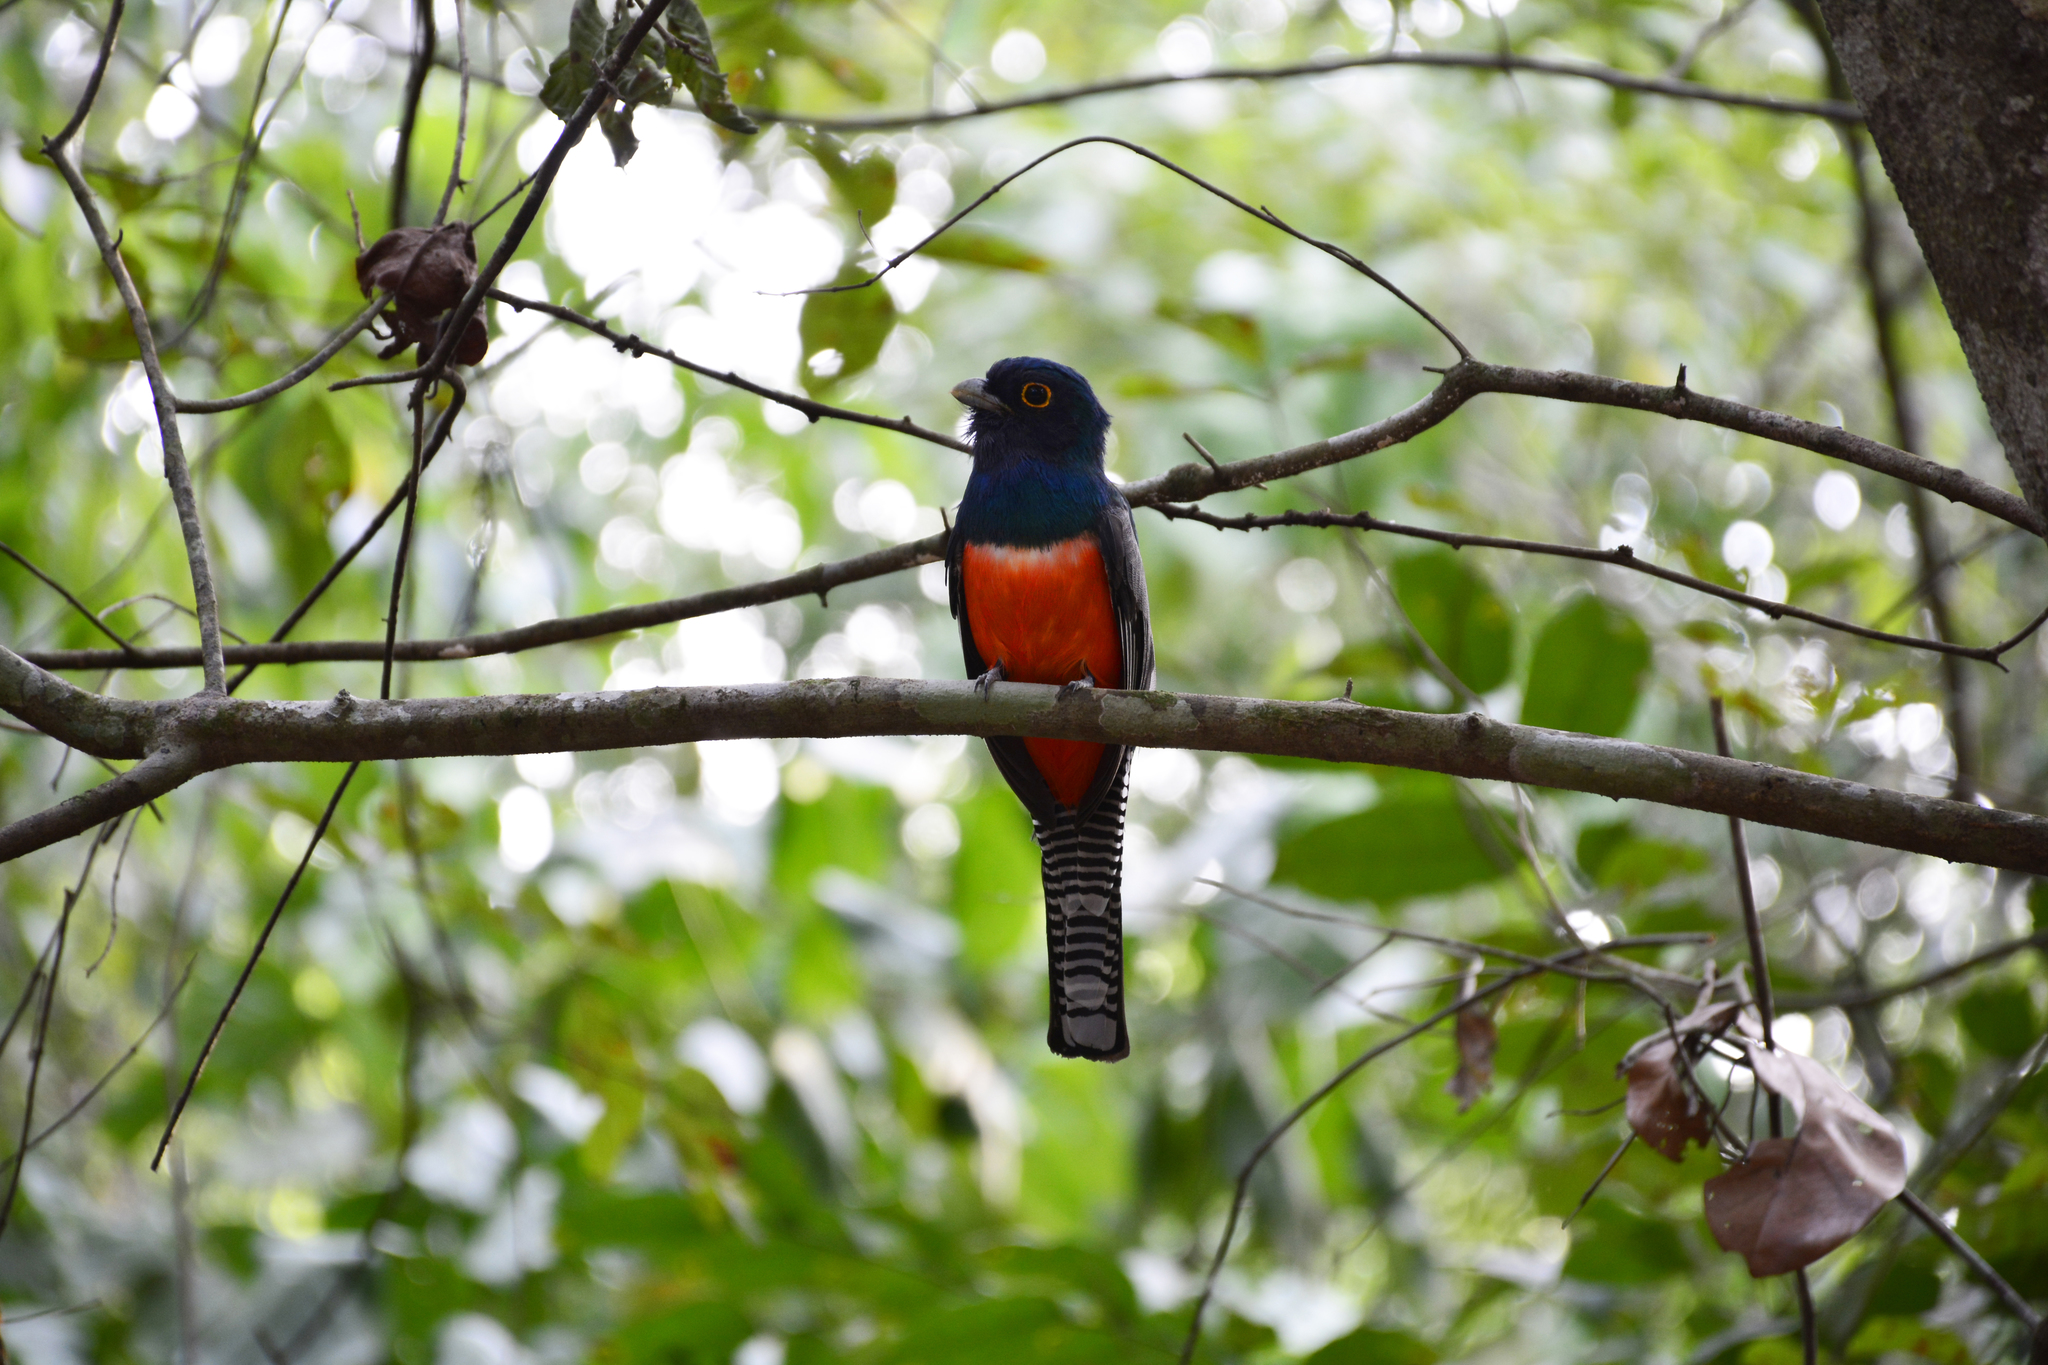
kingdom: Animalia
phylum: Chordata
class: Aves
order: Trogoniformes
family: Trogonidae
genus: Trogon
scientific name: Trogon curucui
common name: Blue-crowned trogon
